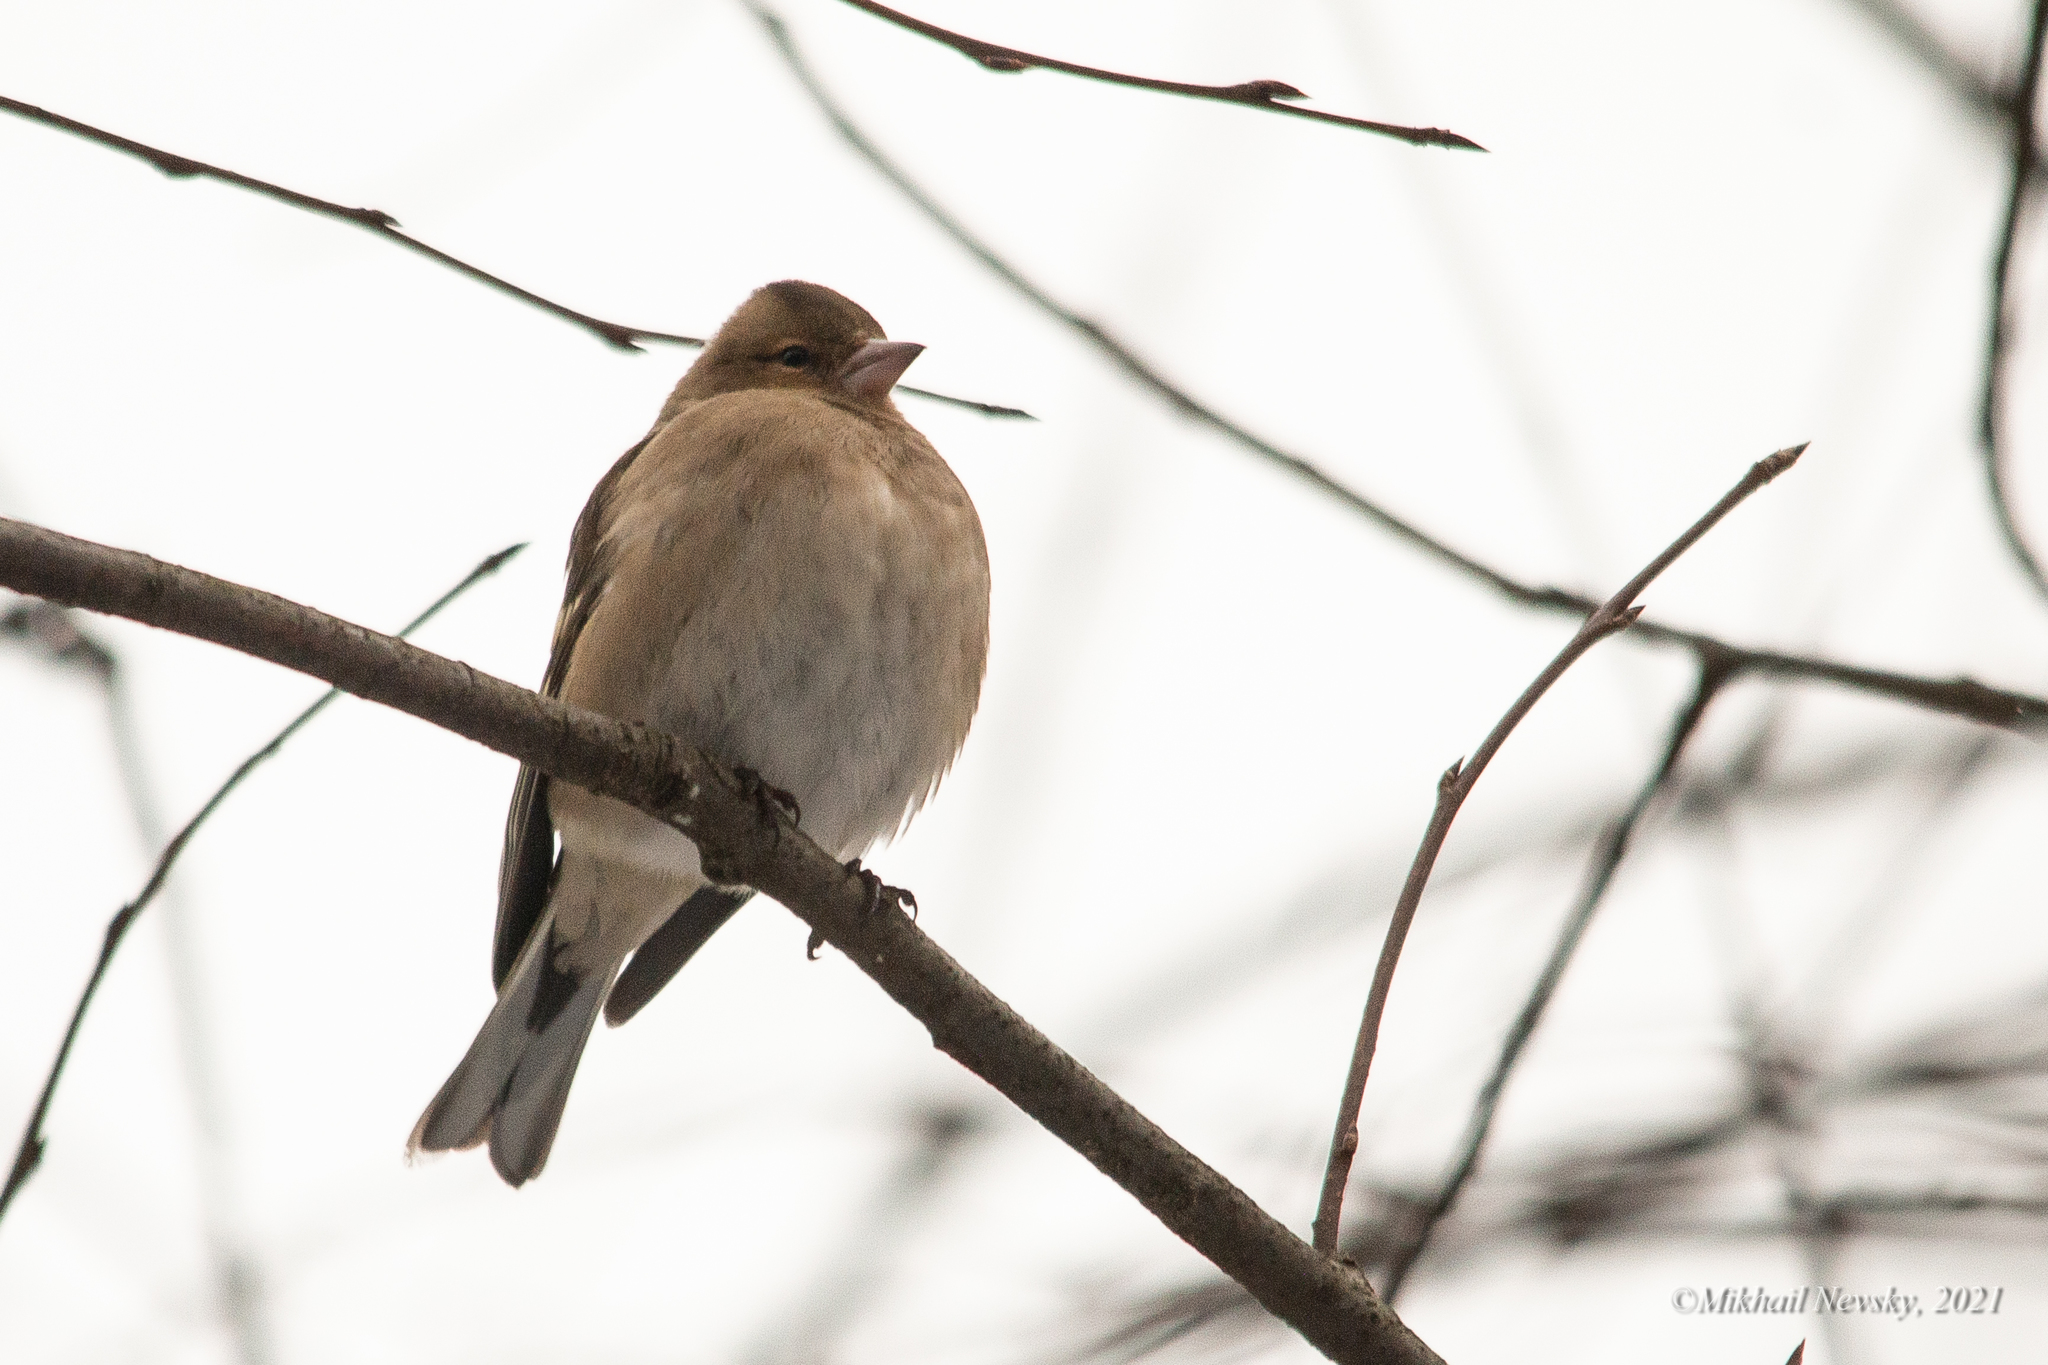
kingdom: Animalia
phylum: Chordata
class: Aves
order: Passeriformes
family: Fringillidae
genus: Fringilla
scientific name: Fringilla coelebs
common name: Common chaffinch
